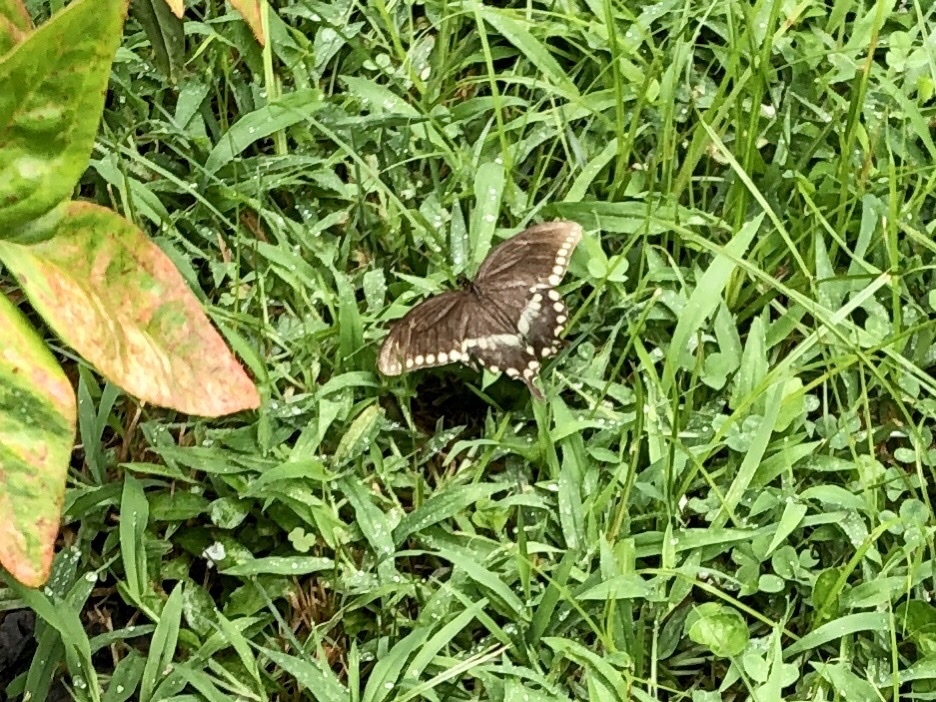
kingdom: Animalia
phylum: Arthropoda
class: Insecta
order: Lepidoptera
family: Papilionidae
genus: Papilio
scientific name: Papilio troilus
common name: Spicebush swallowtail
